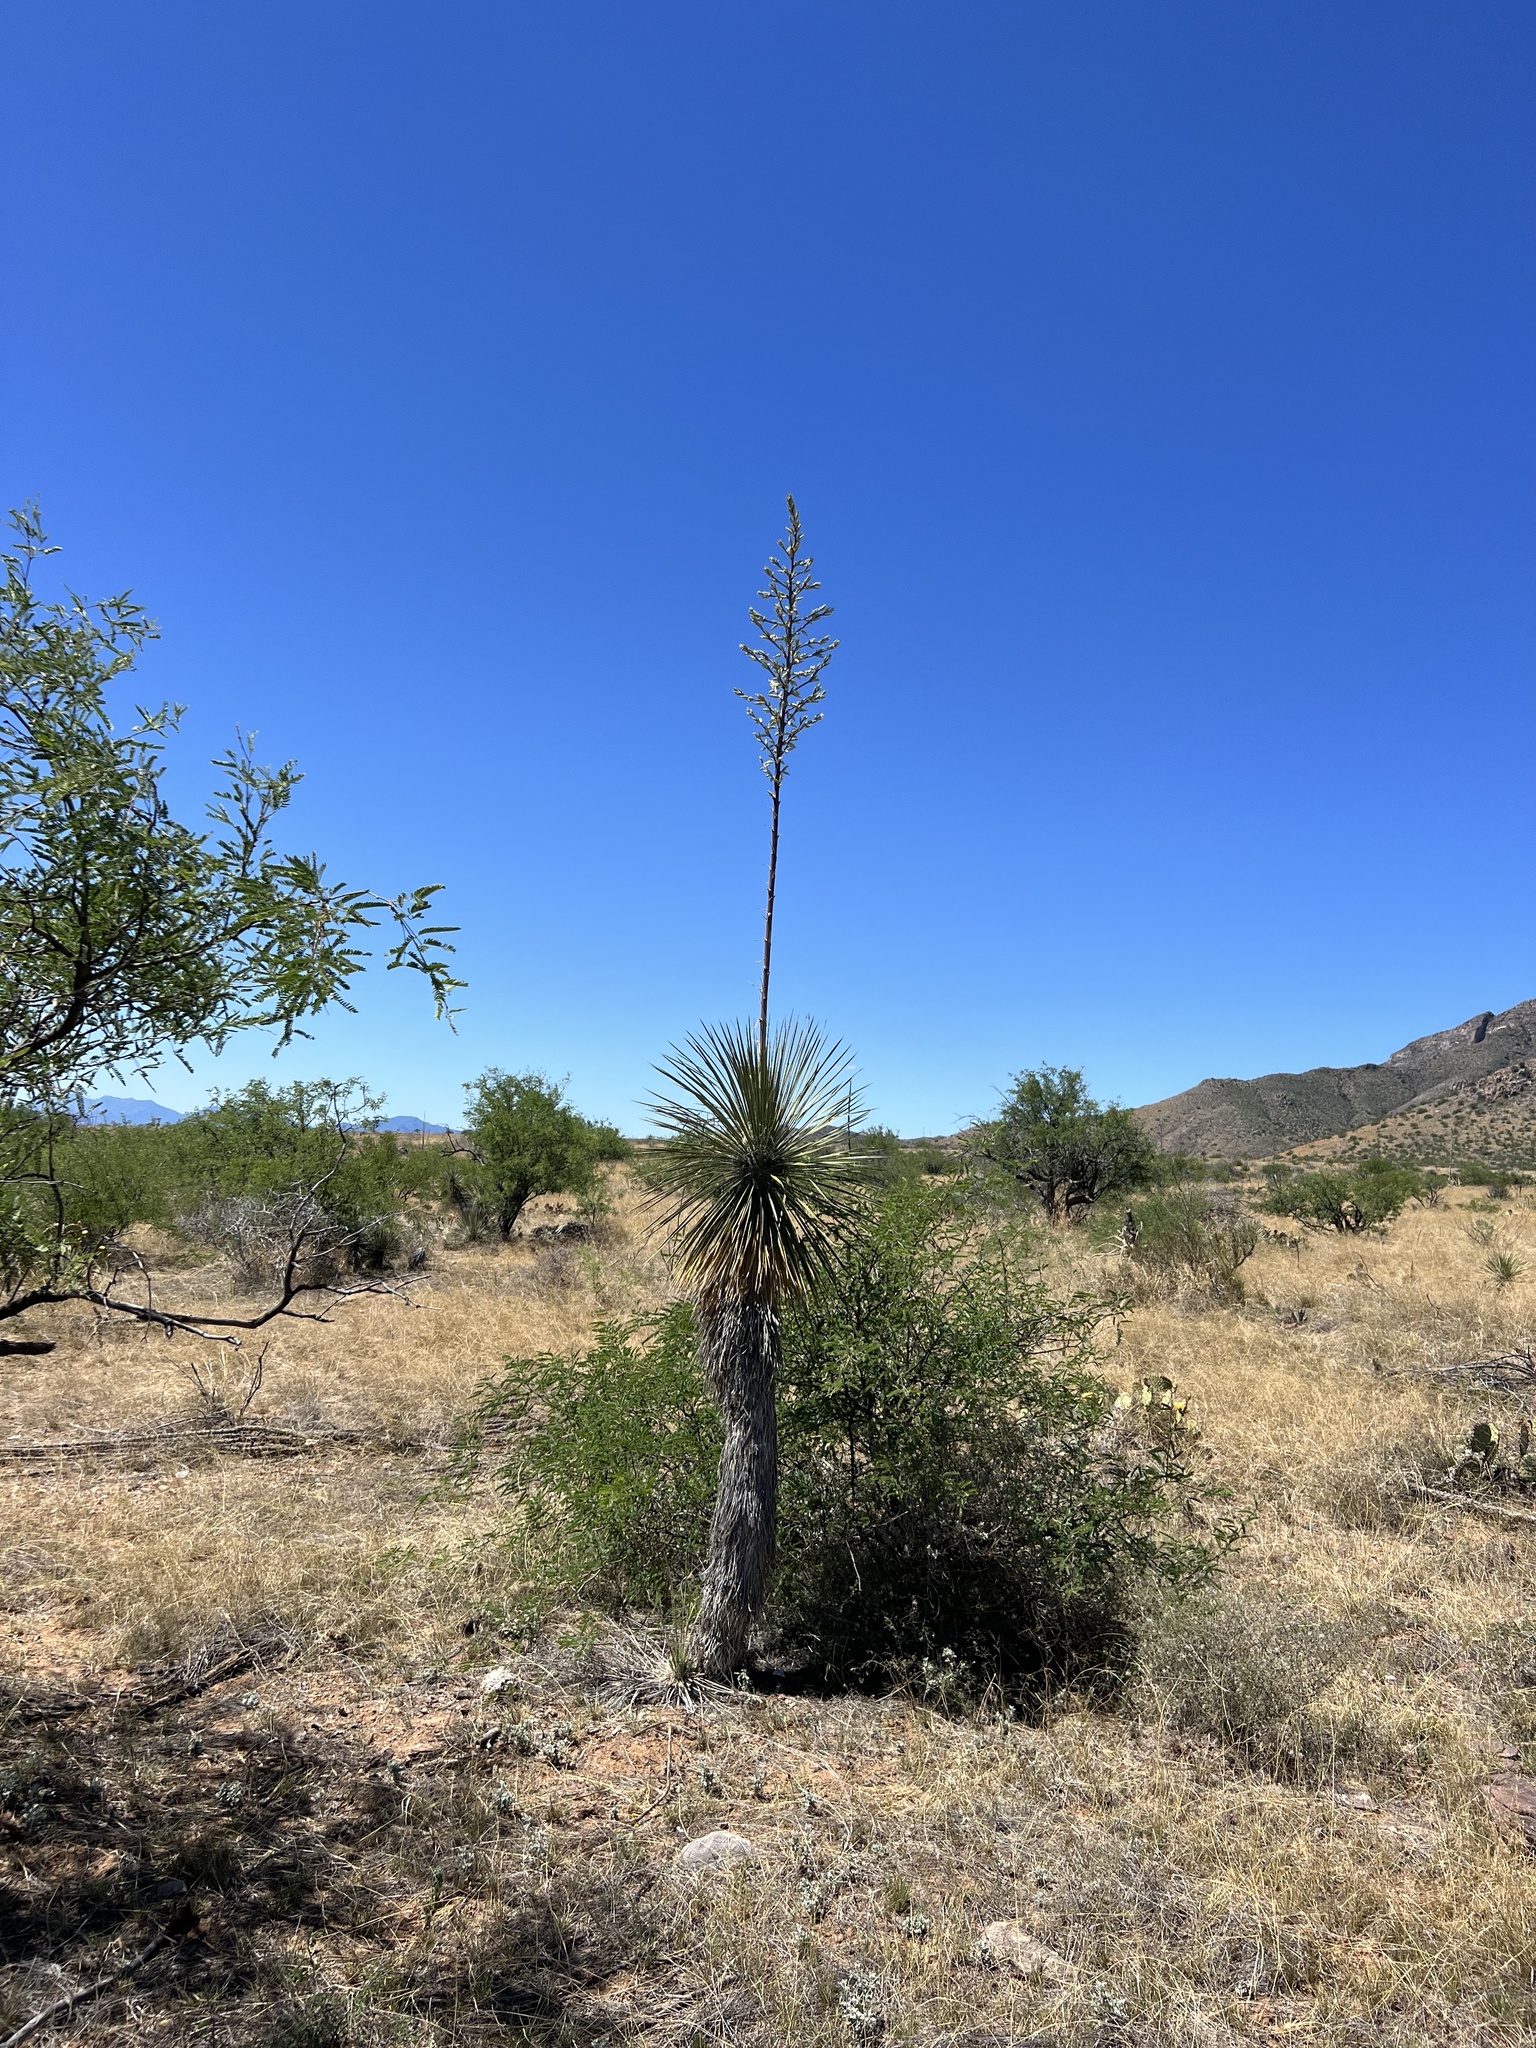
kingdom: Plantae
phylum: Tracheophyta
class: Liliopsida
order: Asparagales
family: Asparagaceae
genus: Yucca
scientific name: Yucca elata
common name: Palmella
